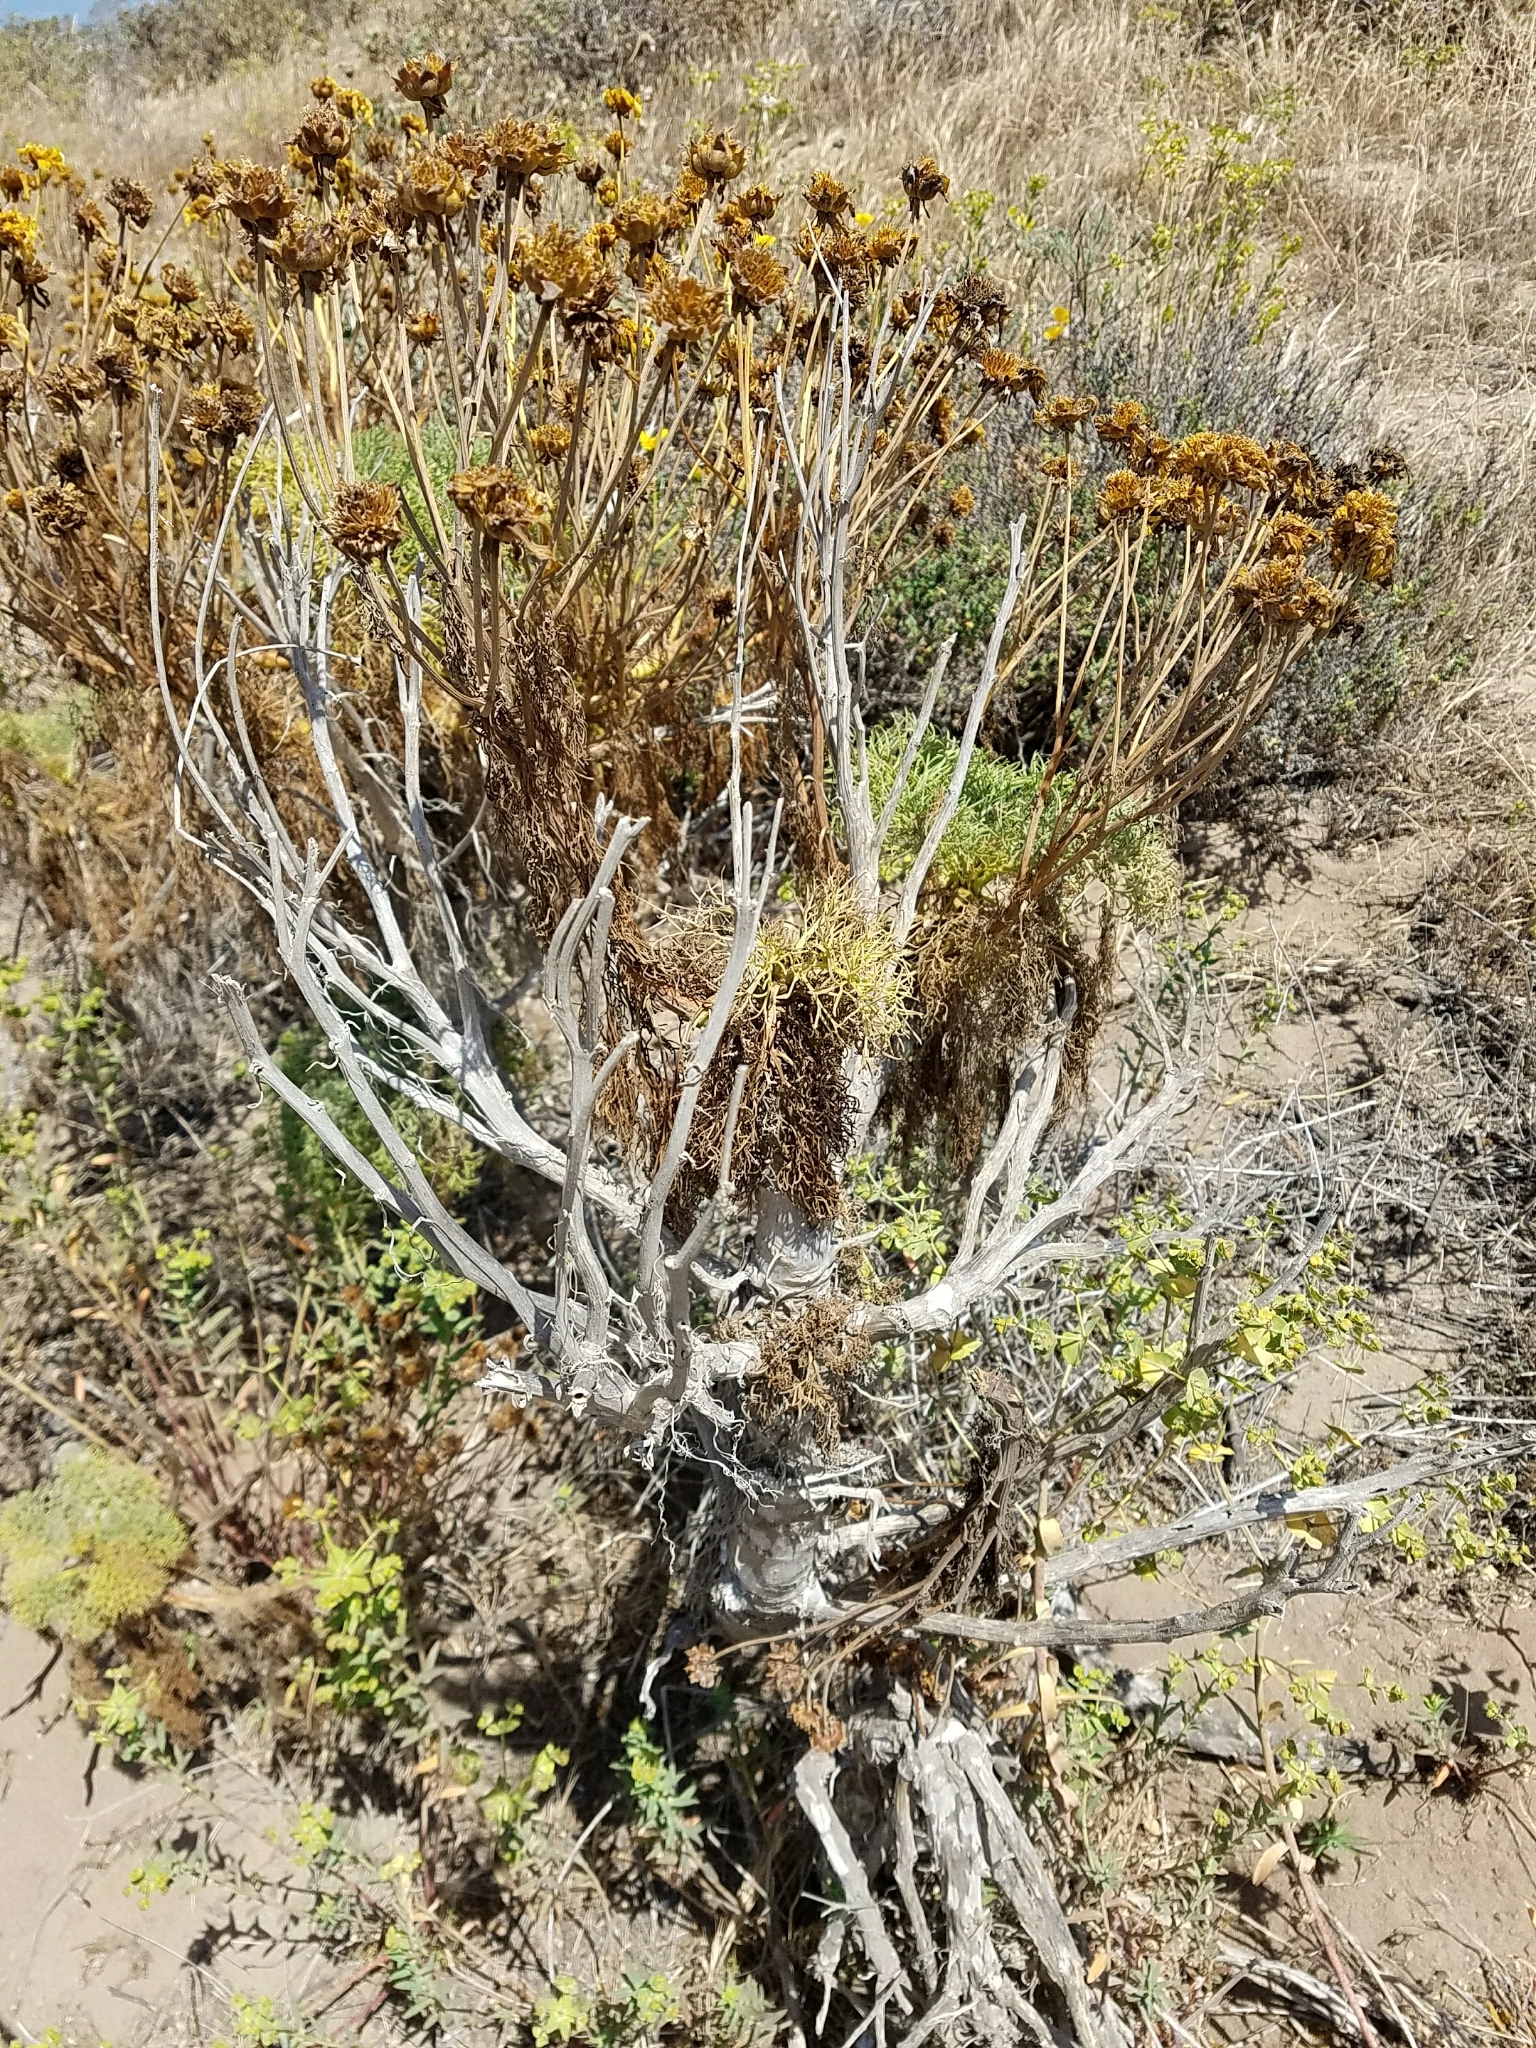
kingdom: Plantae
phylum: Tracheophyta
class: Magnoliopsida
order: Asterales
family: Asteraceae
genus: Coreopsis
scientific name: Coreopsis gigantea
